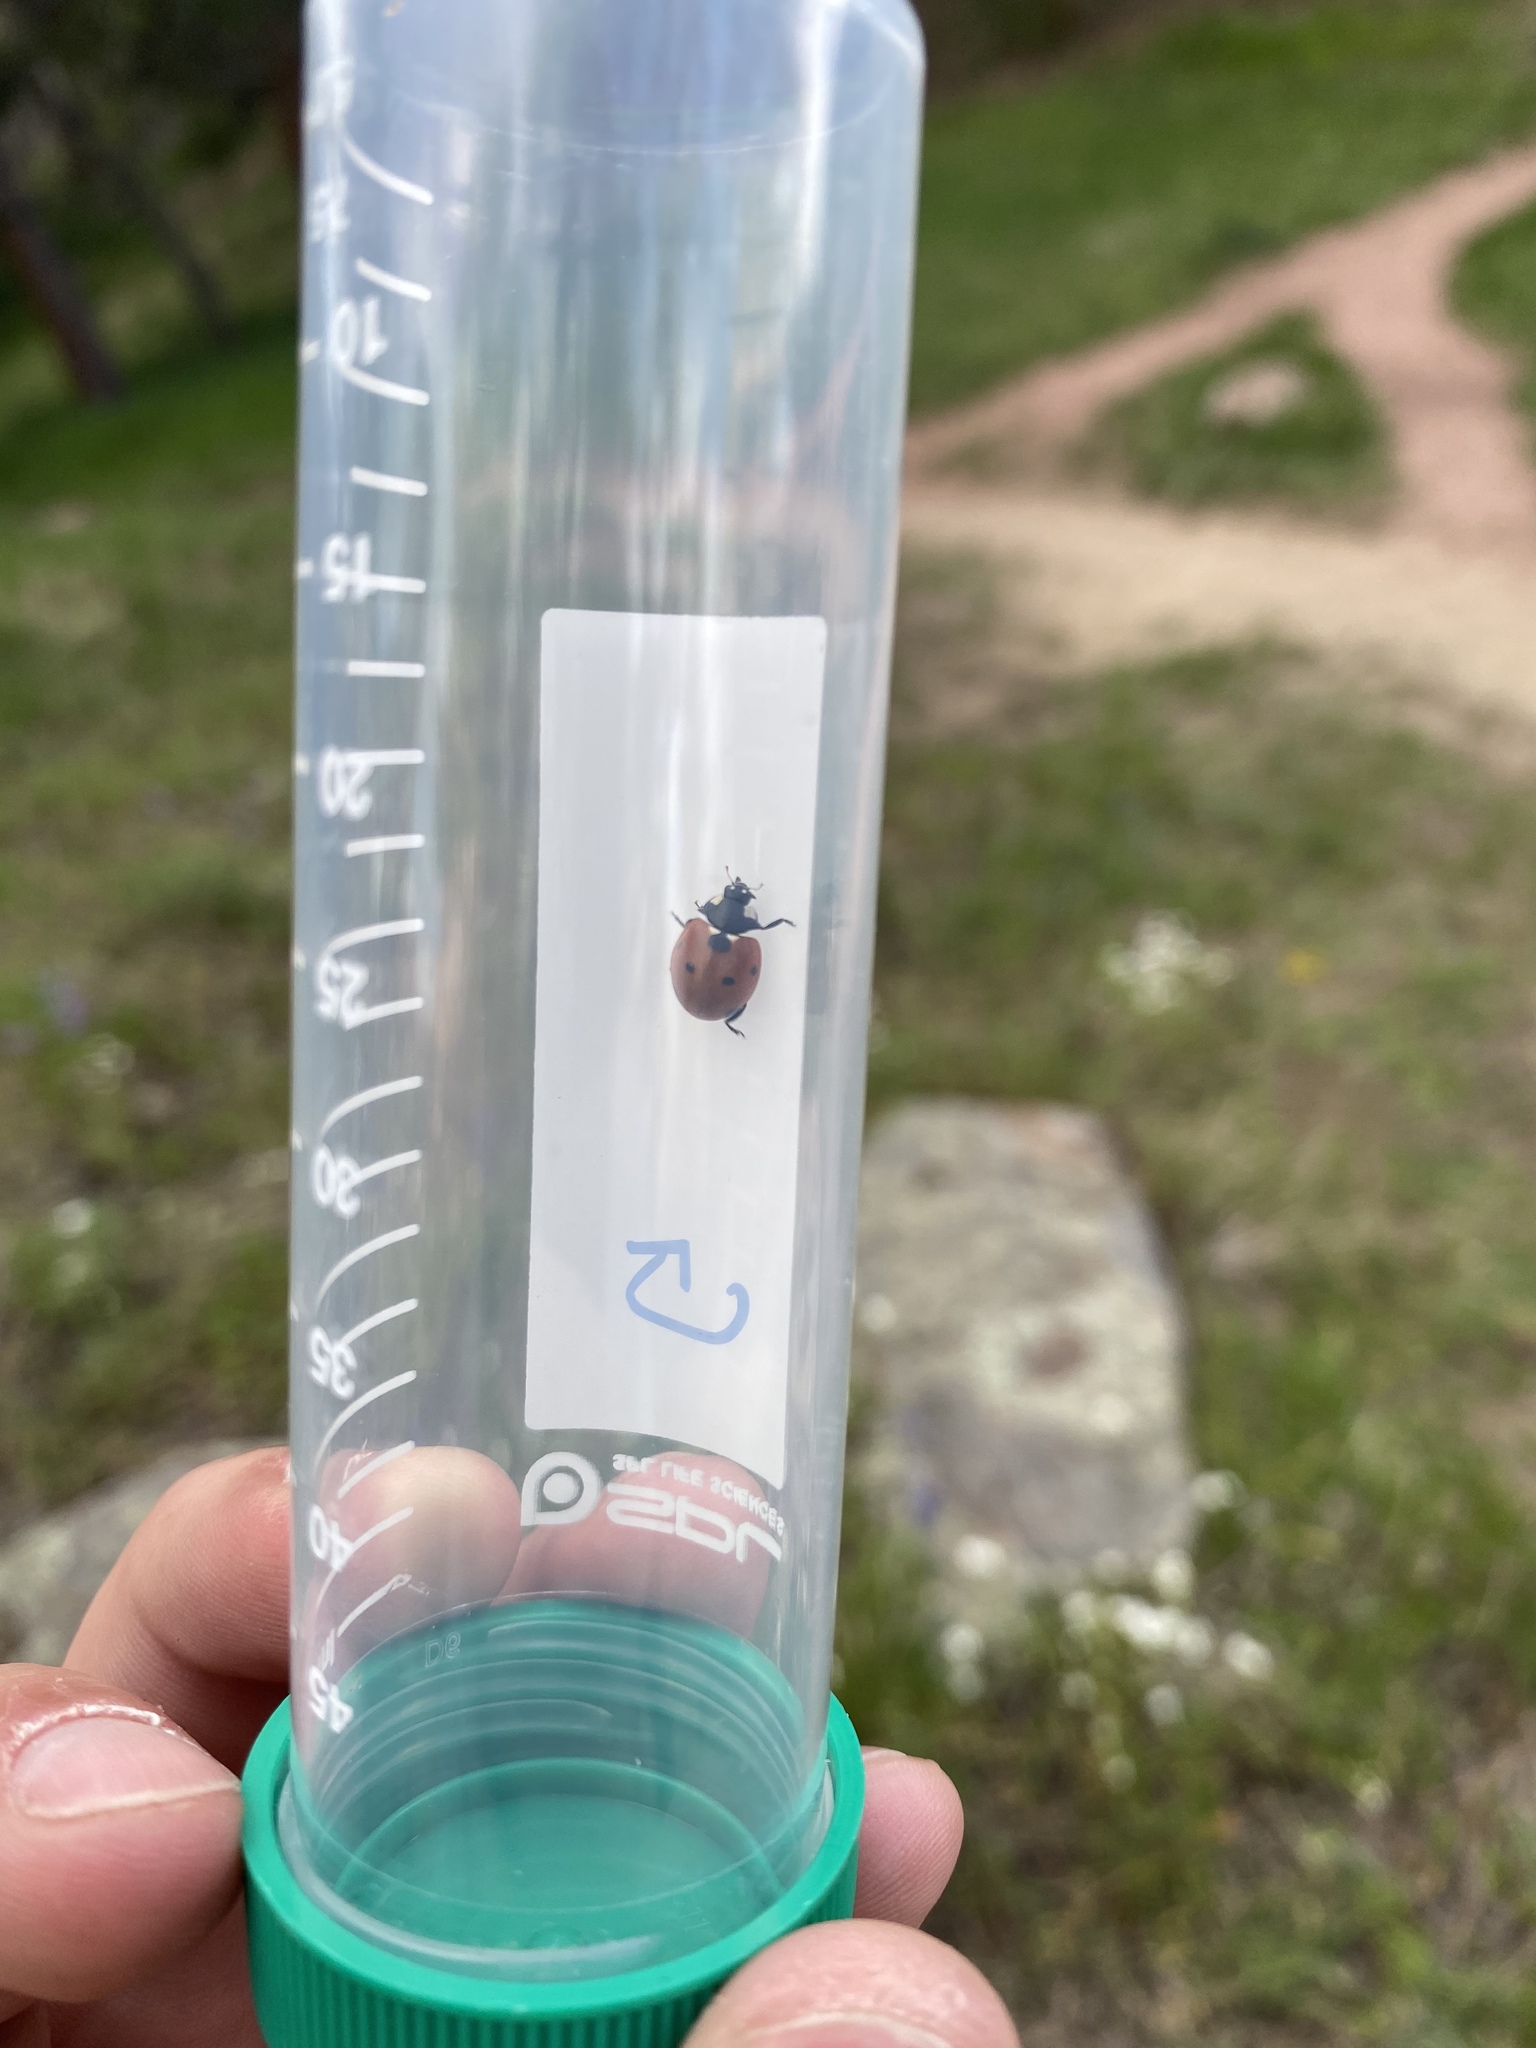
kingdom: Animalia
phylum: Arthropoda
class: Insecta
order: Coleoptera
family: Coccinellidae
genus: Coccinella
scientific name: Coccinella septempunctata
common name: Sevenspotted lady beetle
